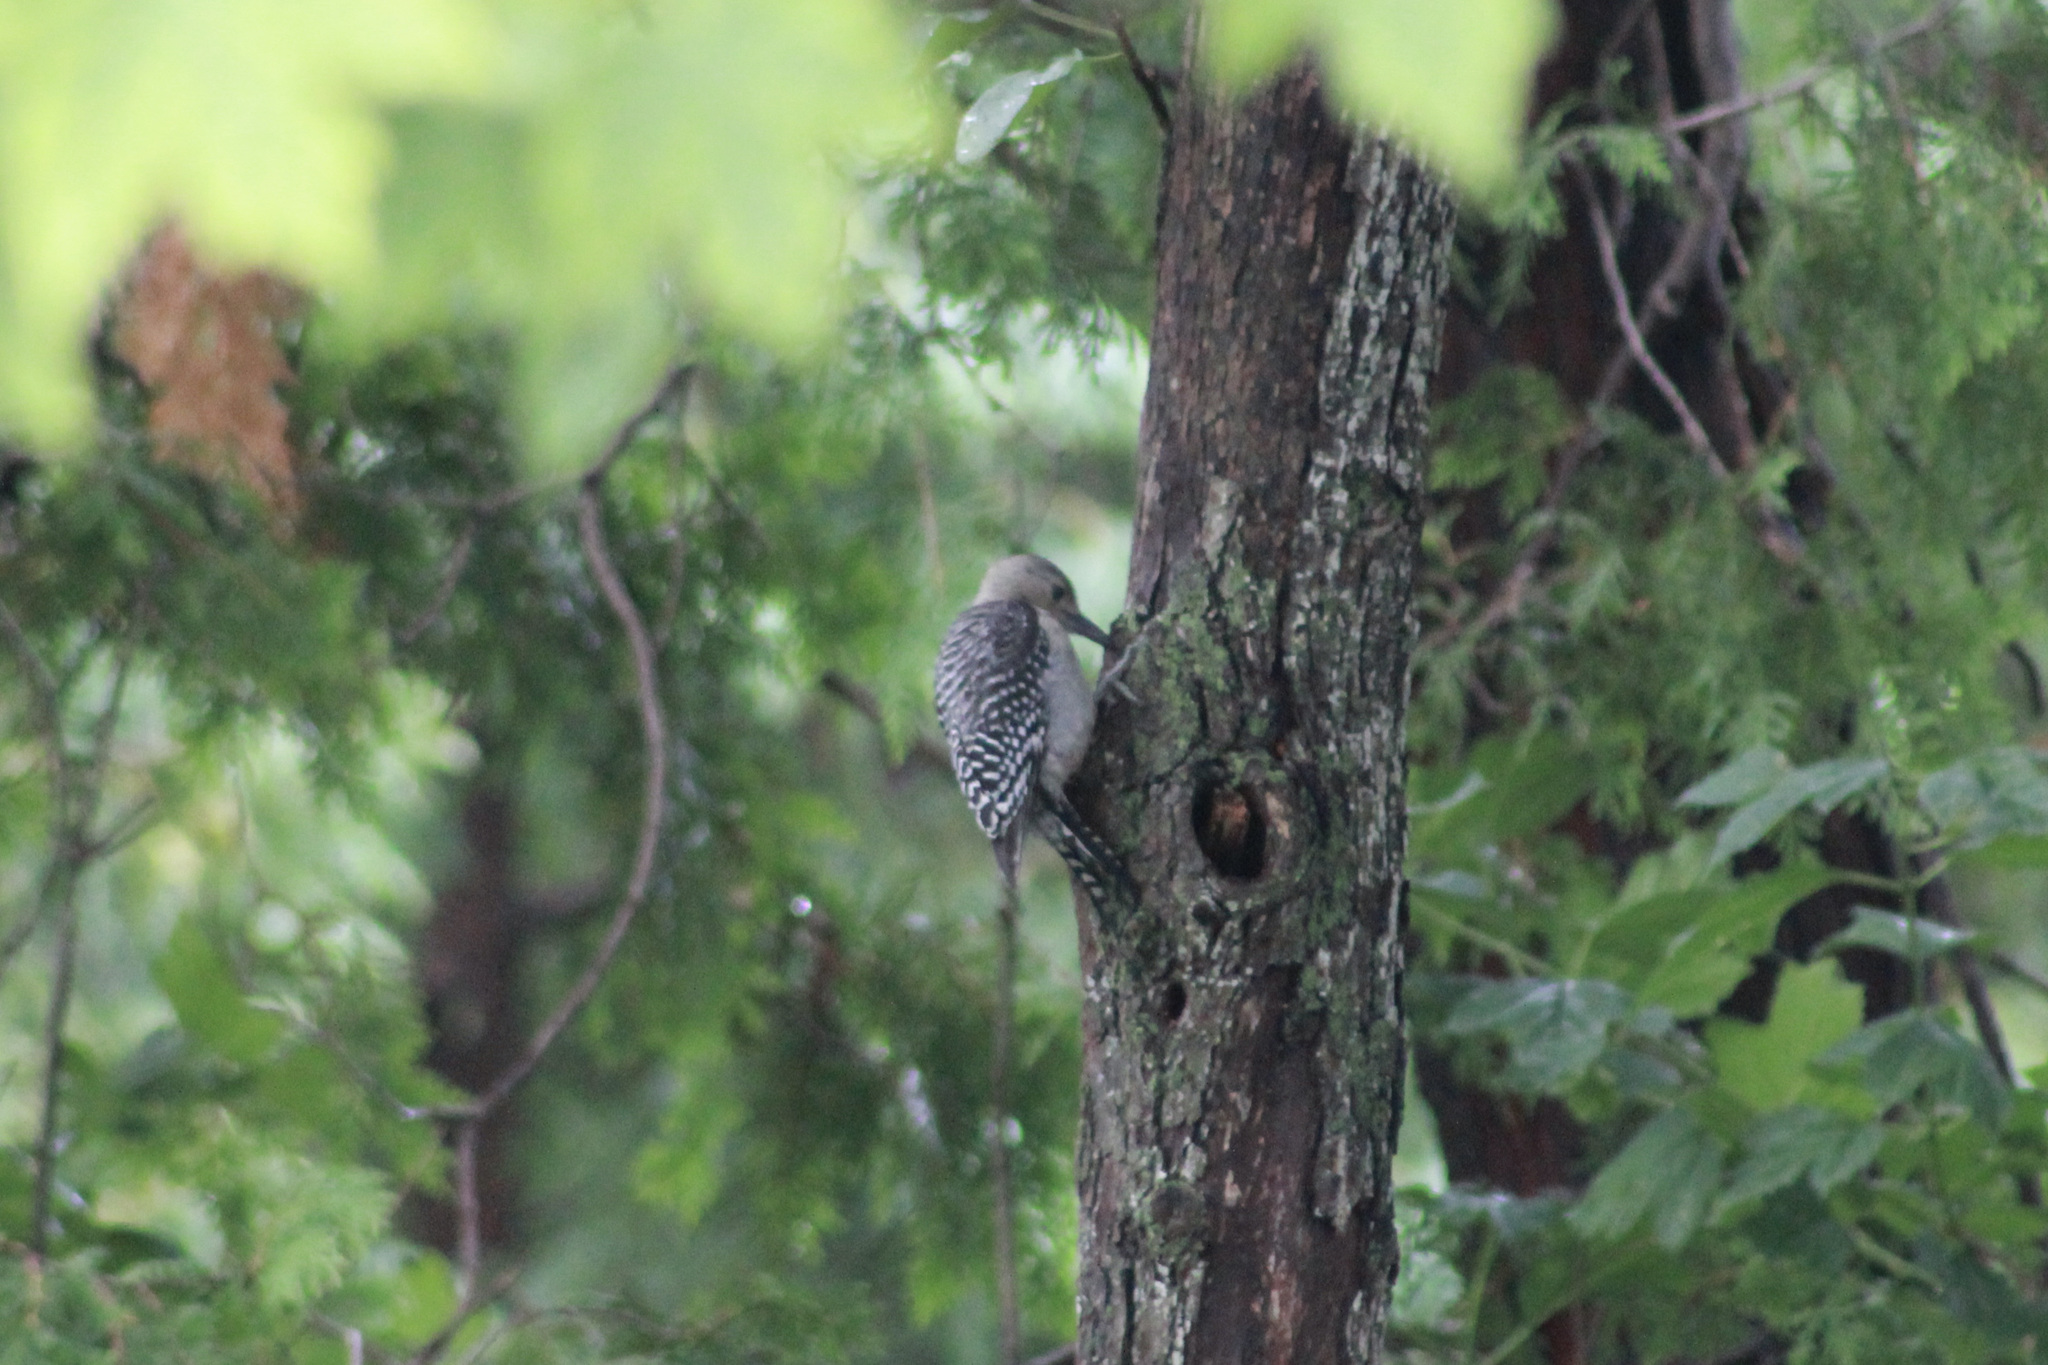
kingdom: Animalia
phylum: Chordata
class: Aves
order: Piciformes
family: Picidae
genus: Melanerpes
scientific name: Melanerpes carolinus
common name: Red-bellied woodpecker
